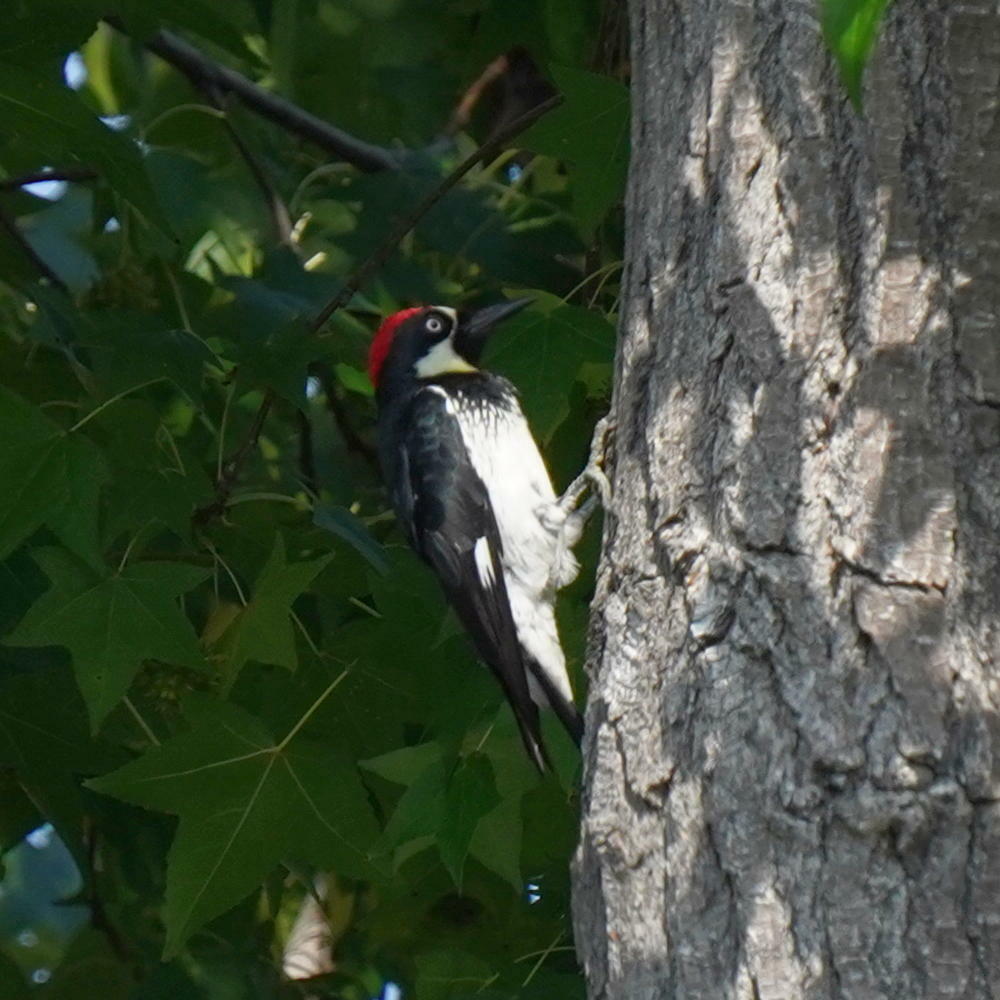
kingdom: Animalia
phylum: Chordata
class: Aves
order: Piciformes
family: Picidae
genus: Melanerpes
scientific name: Melanerpes formicivorus
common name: Acorn woodpecker
